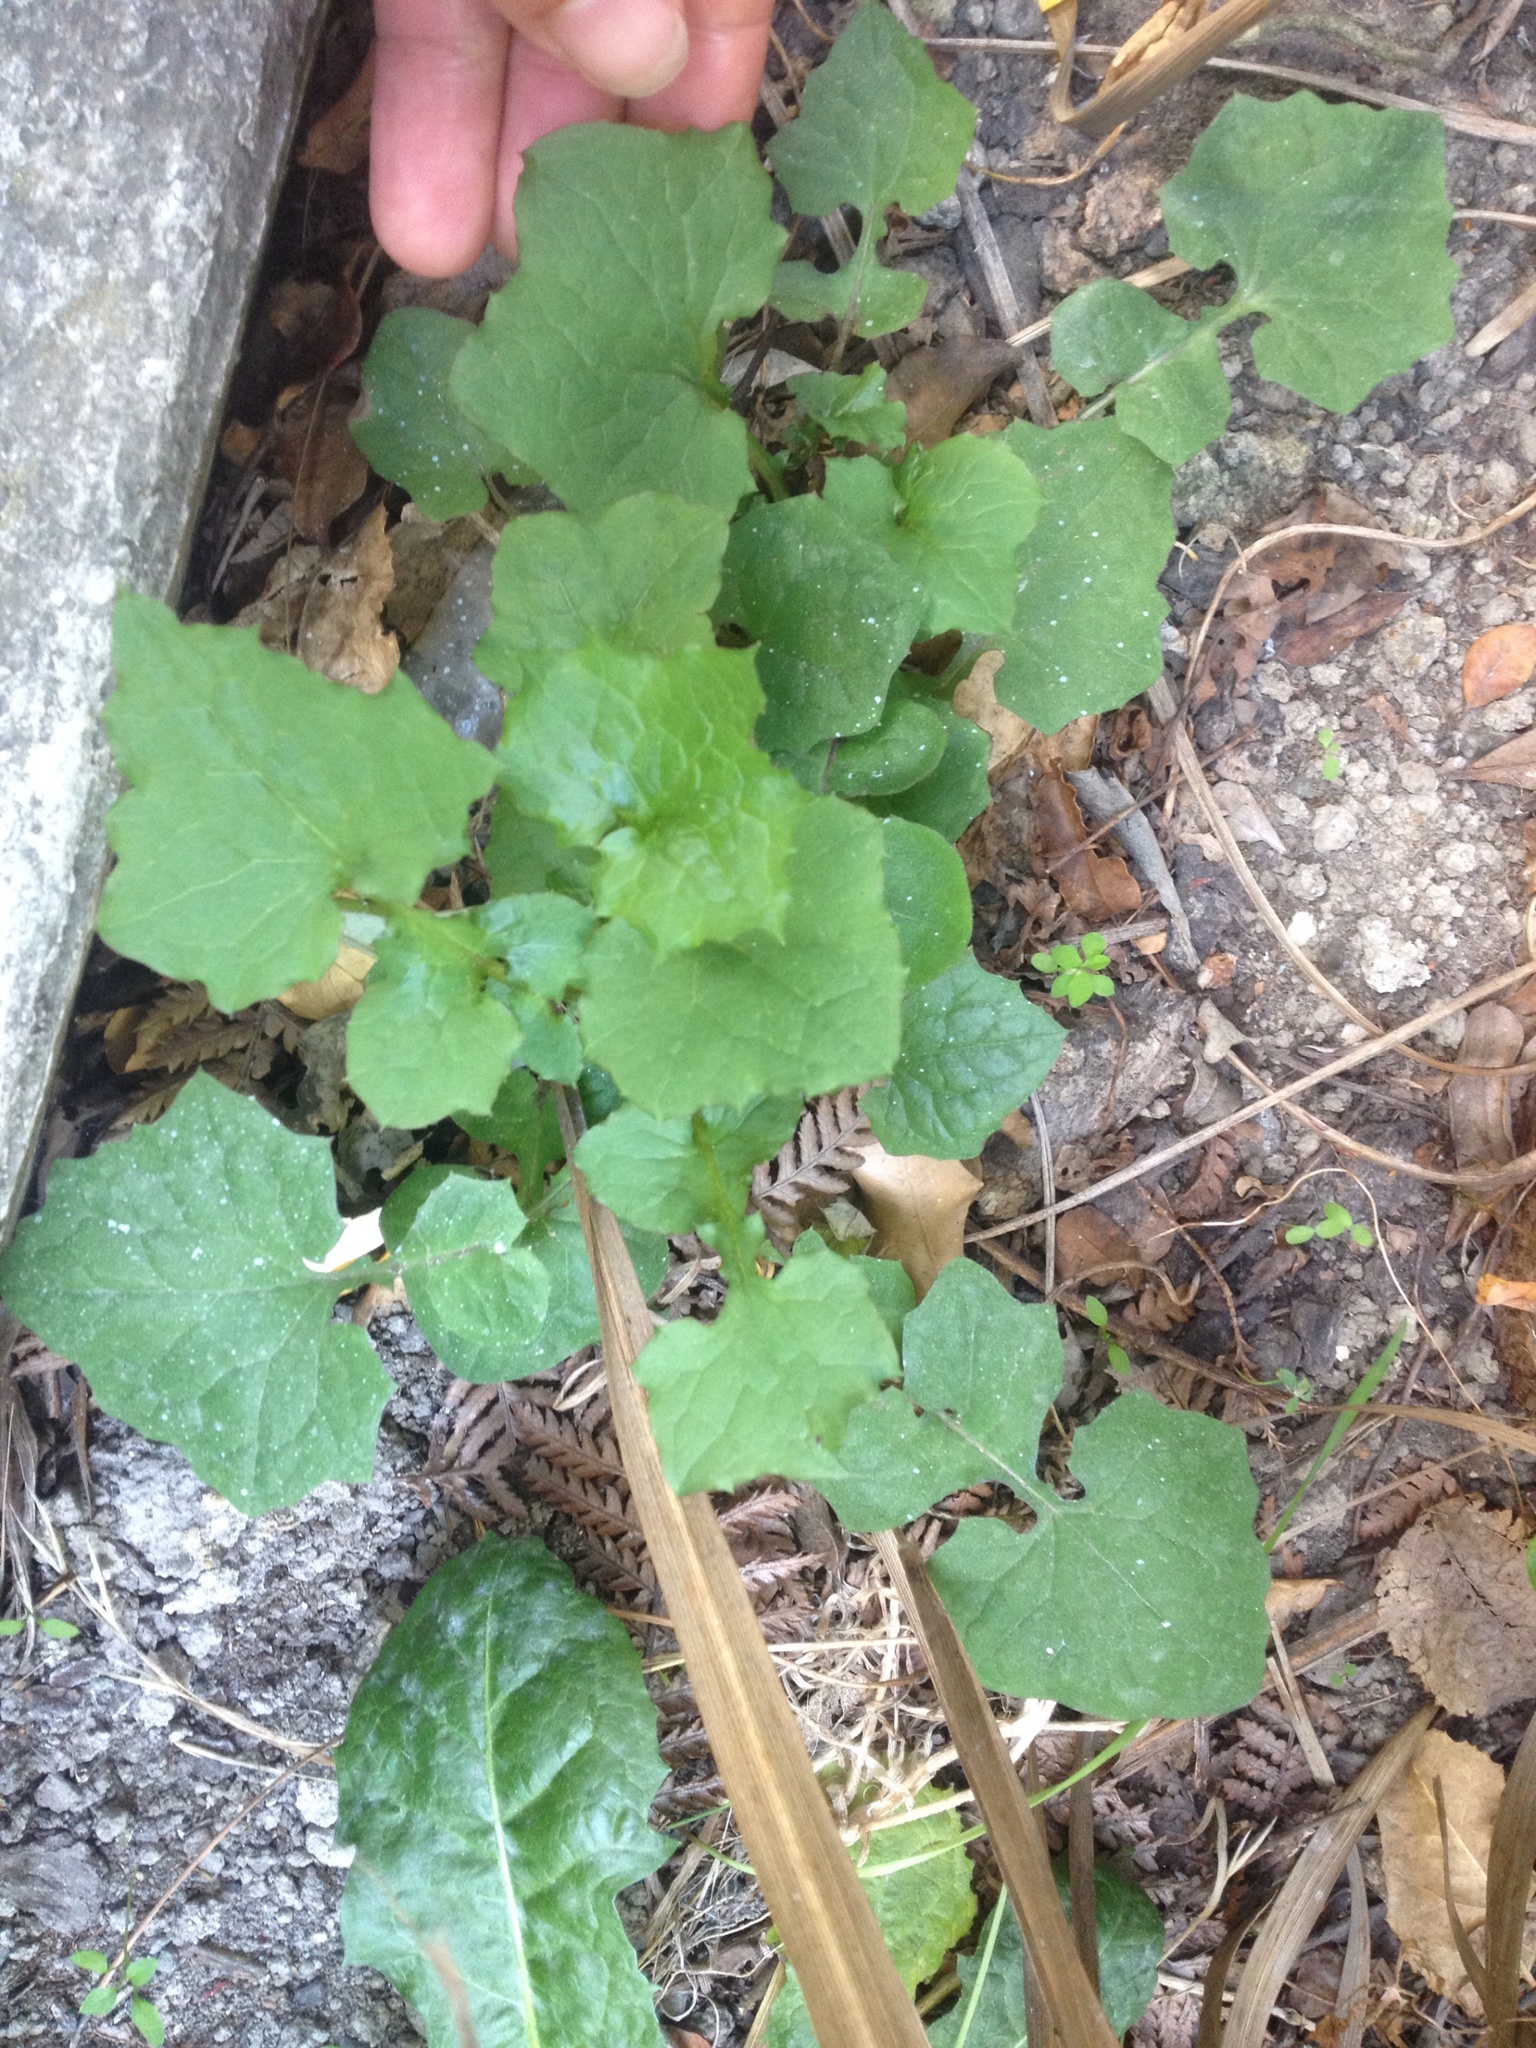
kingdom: Plantae
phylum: Tracheophyta
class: Magnoliopsida
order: Asterales
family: Asteraceae
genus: Mycelis
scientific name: Mycelis muralis
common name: Wall lettuce
